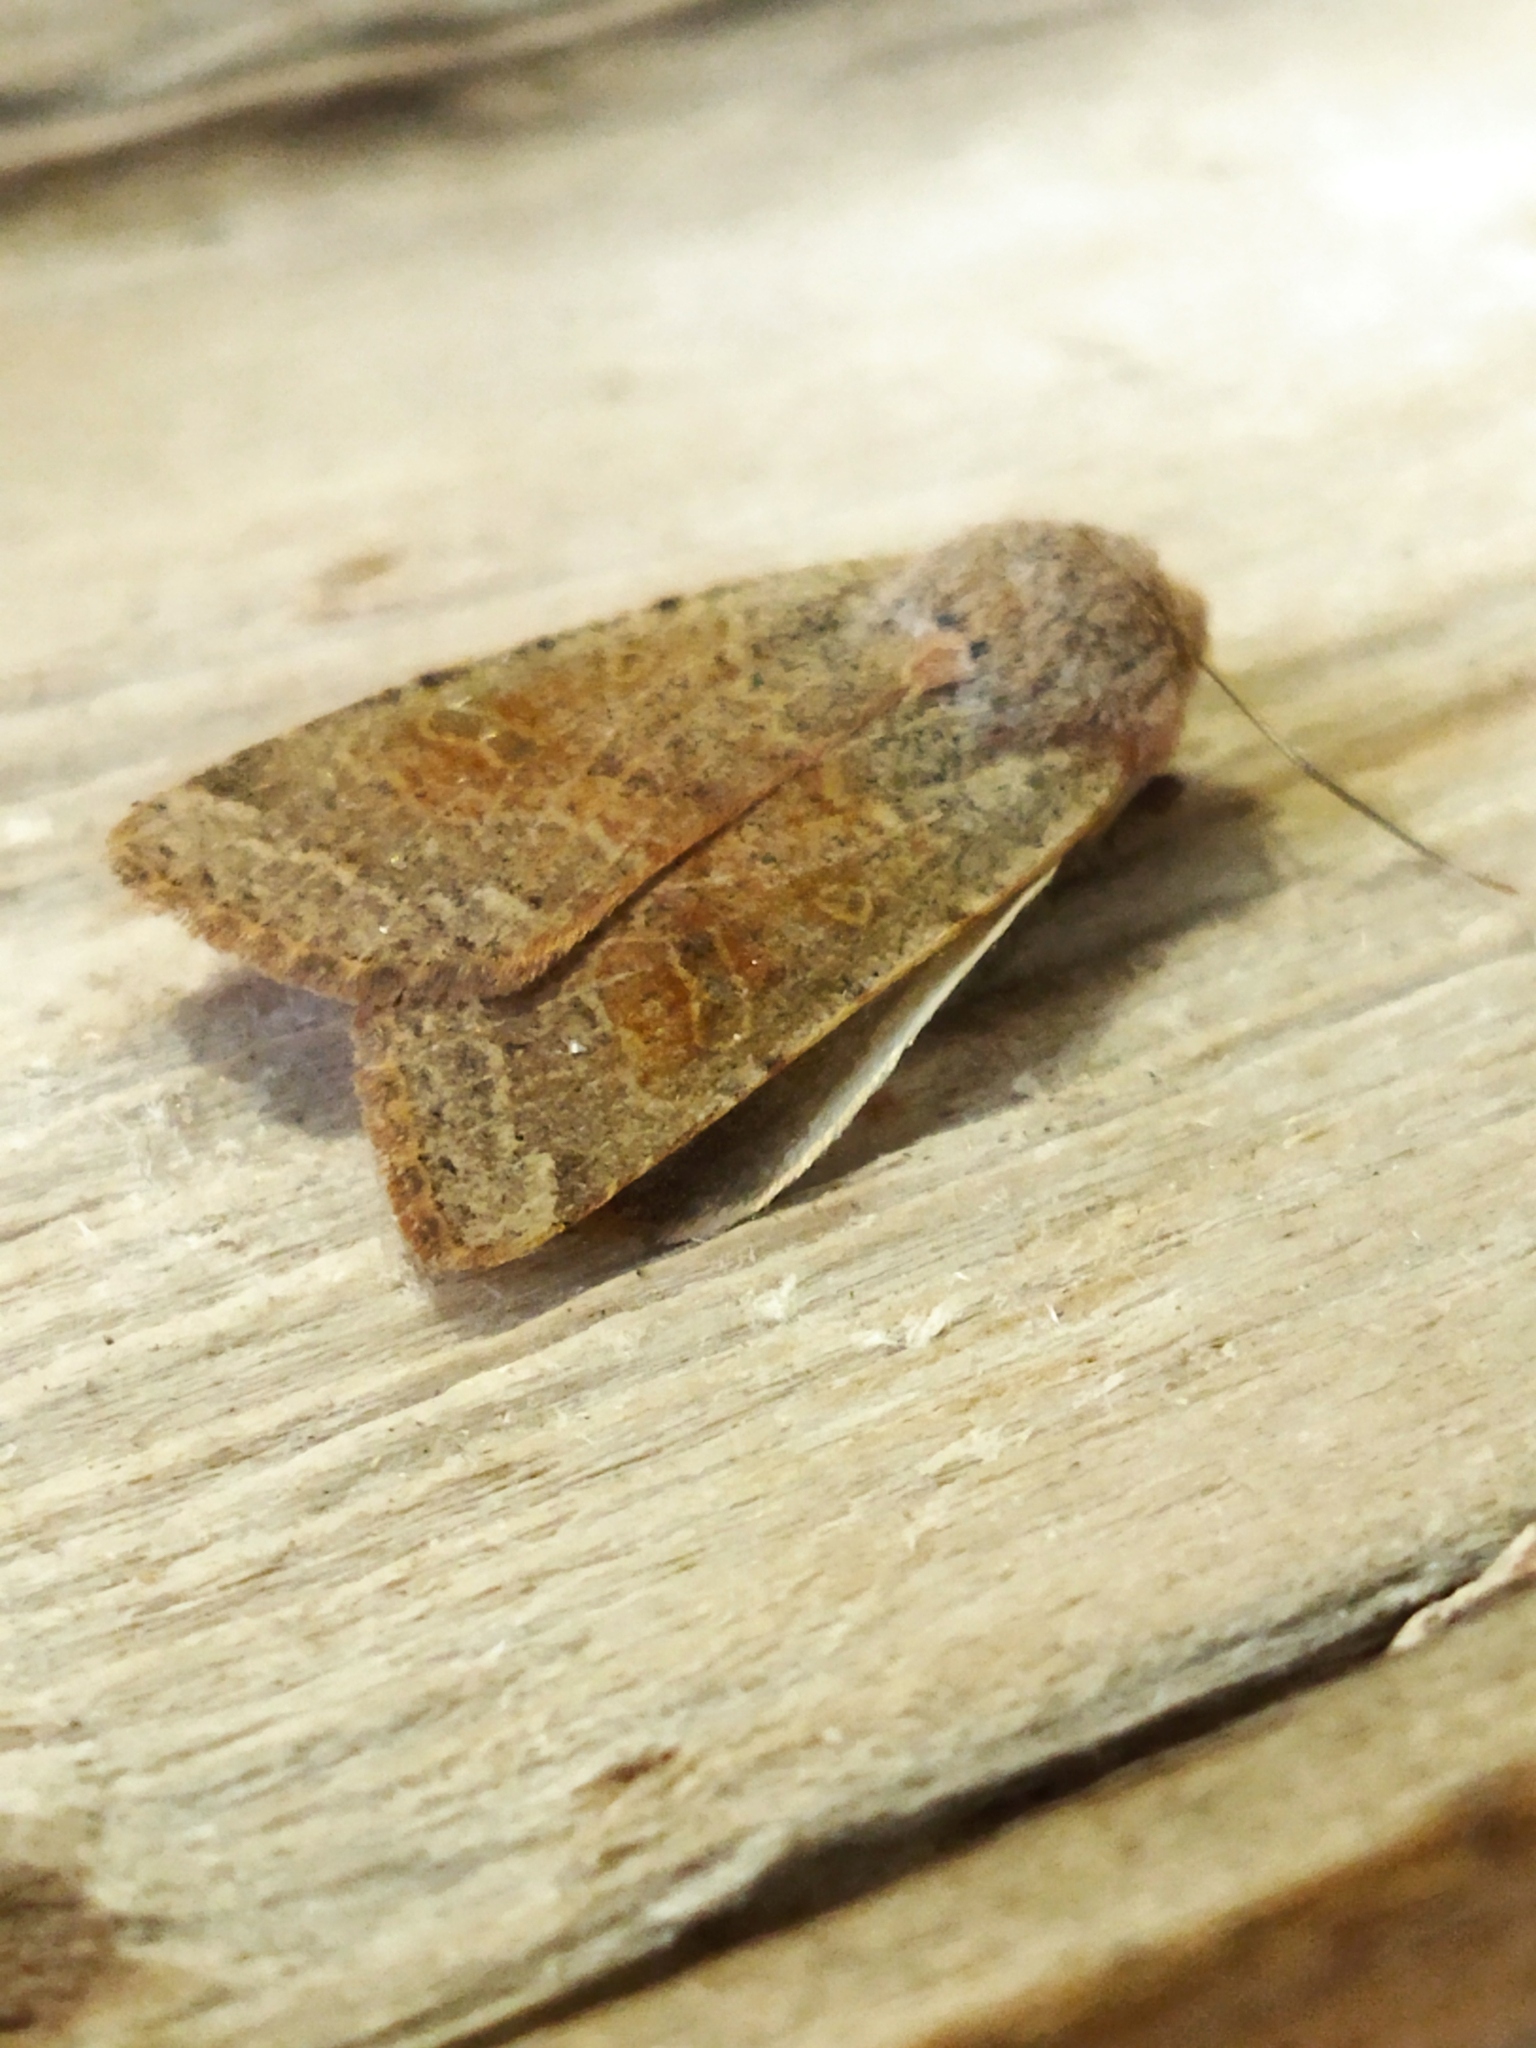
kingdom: Animalia
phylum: Arthropoda
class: Insecta
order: Lepidoptera
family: Noctuidae
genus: Agrochola
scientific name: Agrochola lychnidis
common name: Beaded chestnut
